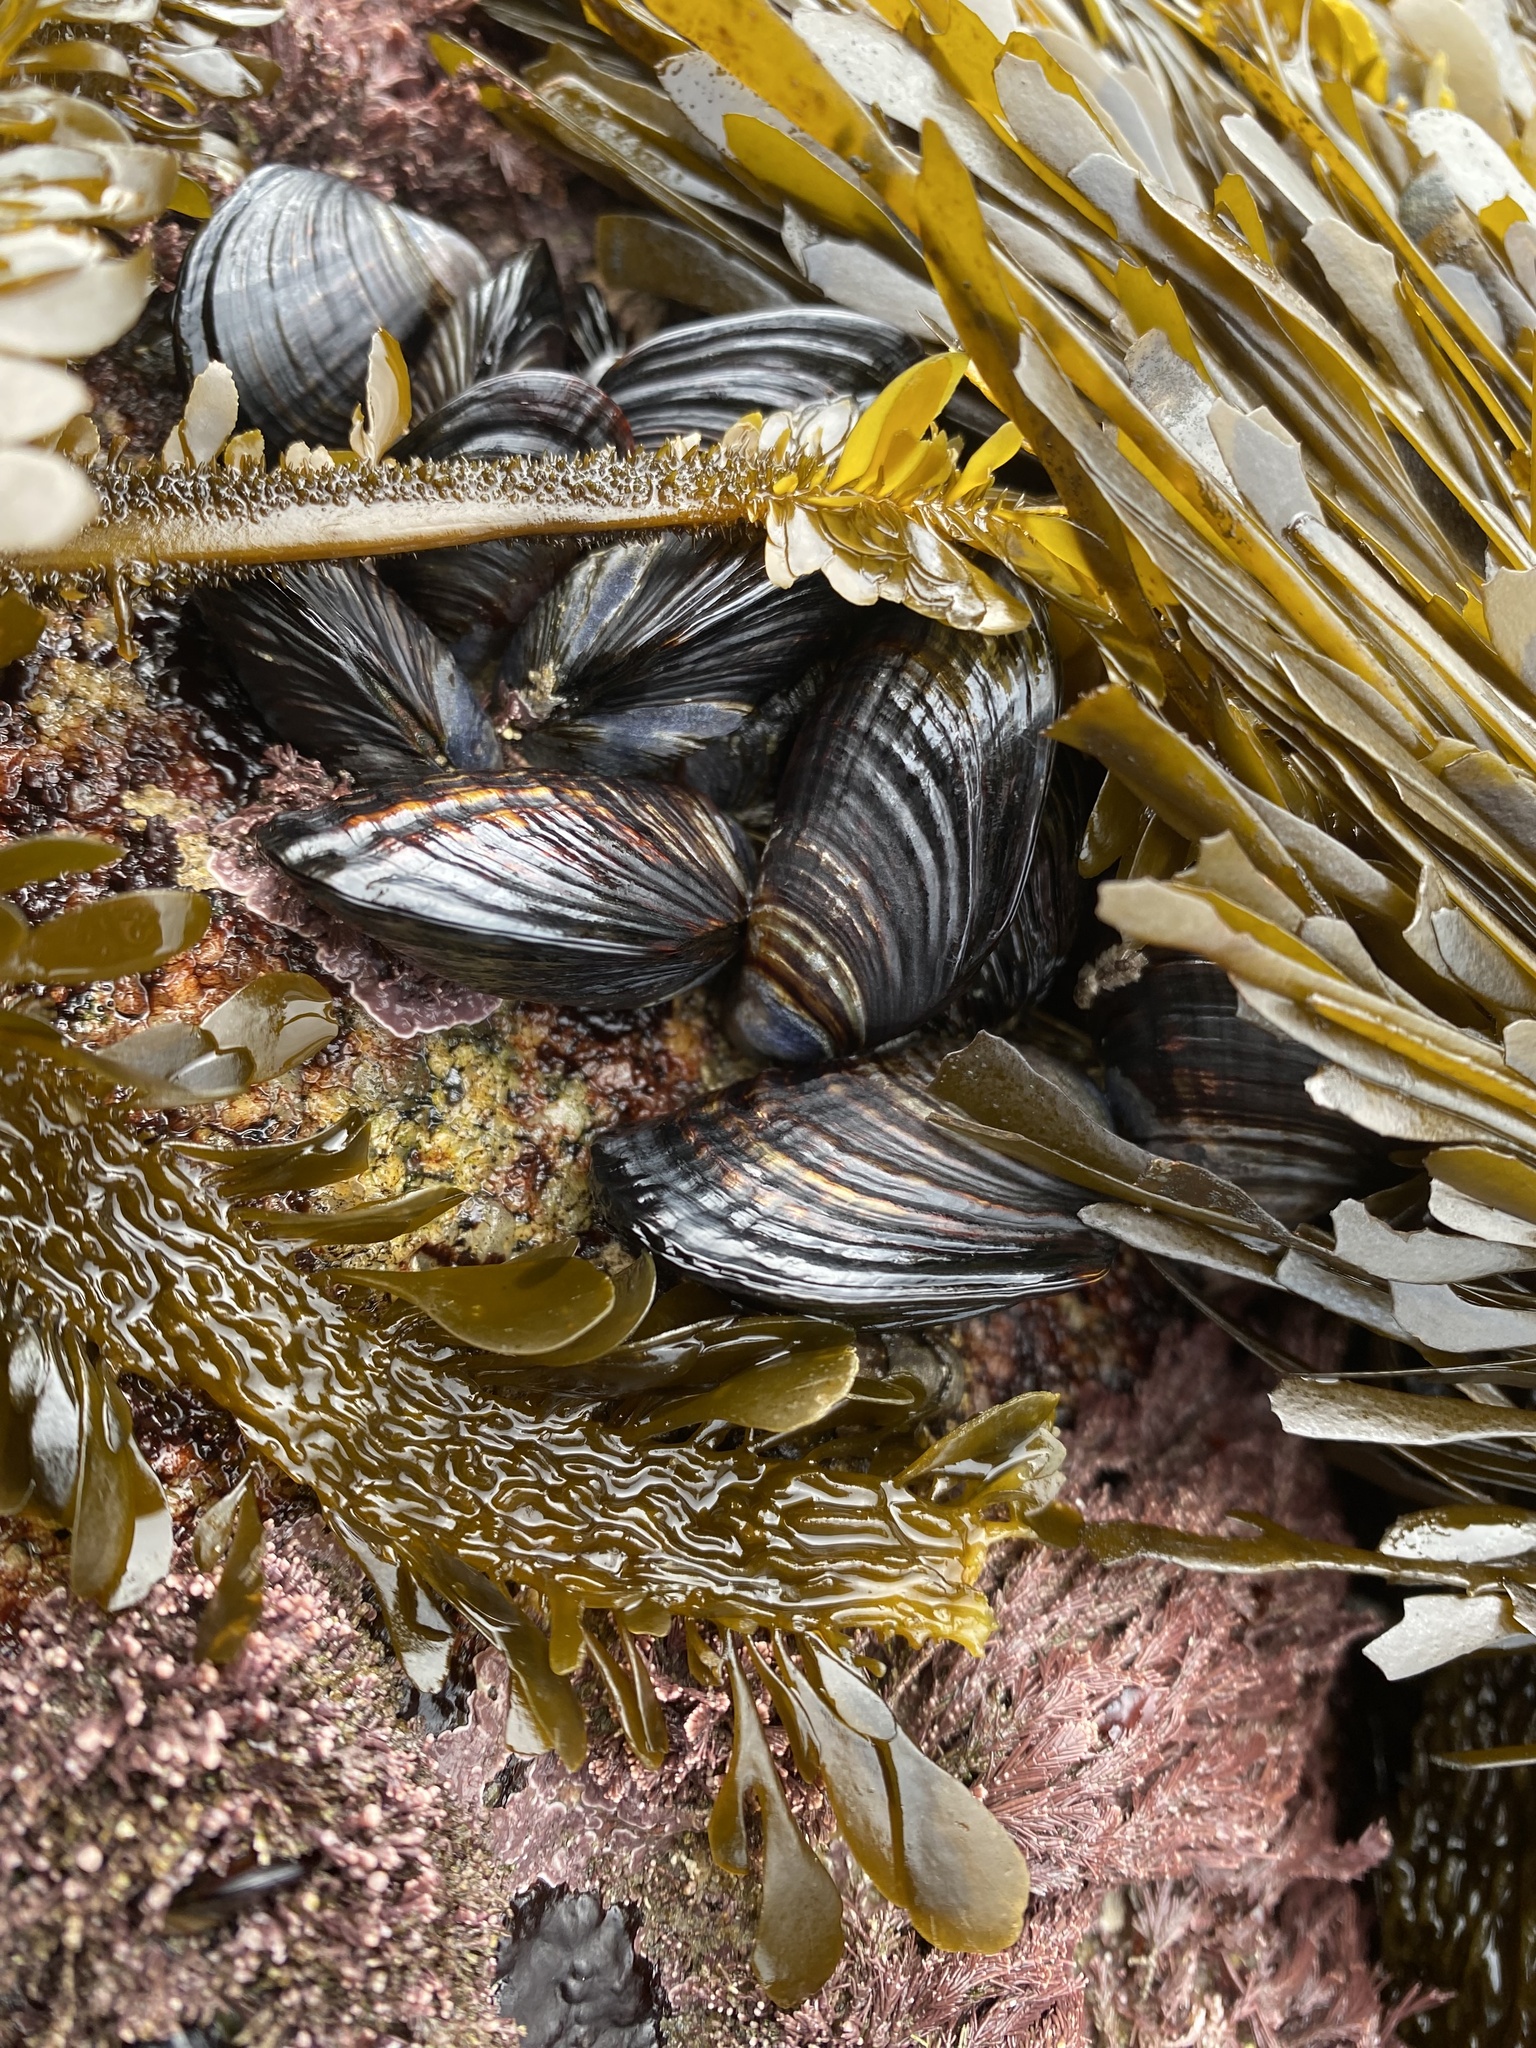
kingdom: Animalia
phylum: Mollusca
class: Bivalvia
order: Mytilida
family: Mytilidae
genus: Mytilus
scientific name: Mytilus californianus
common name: California mussel
